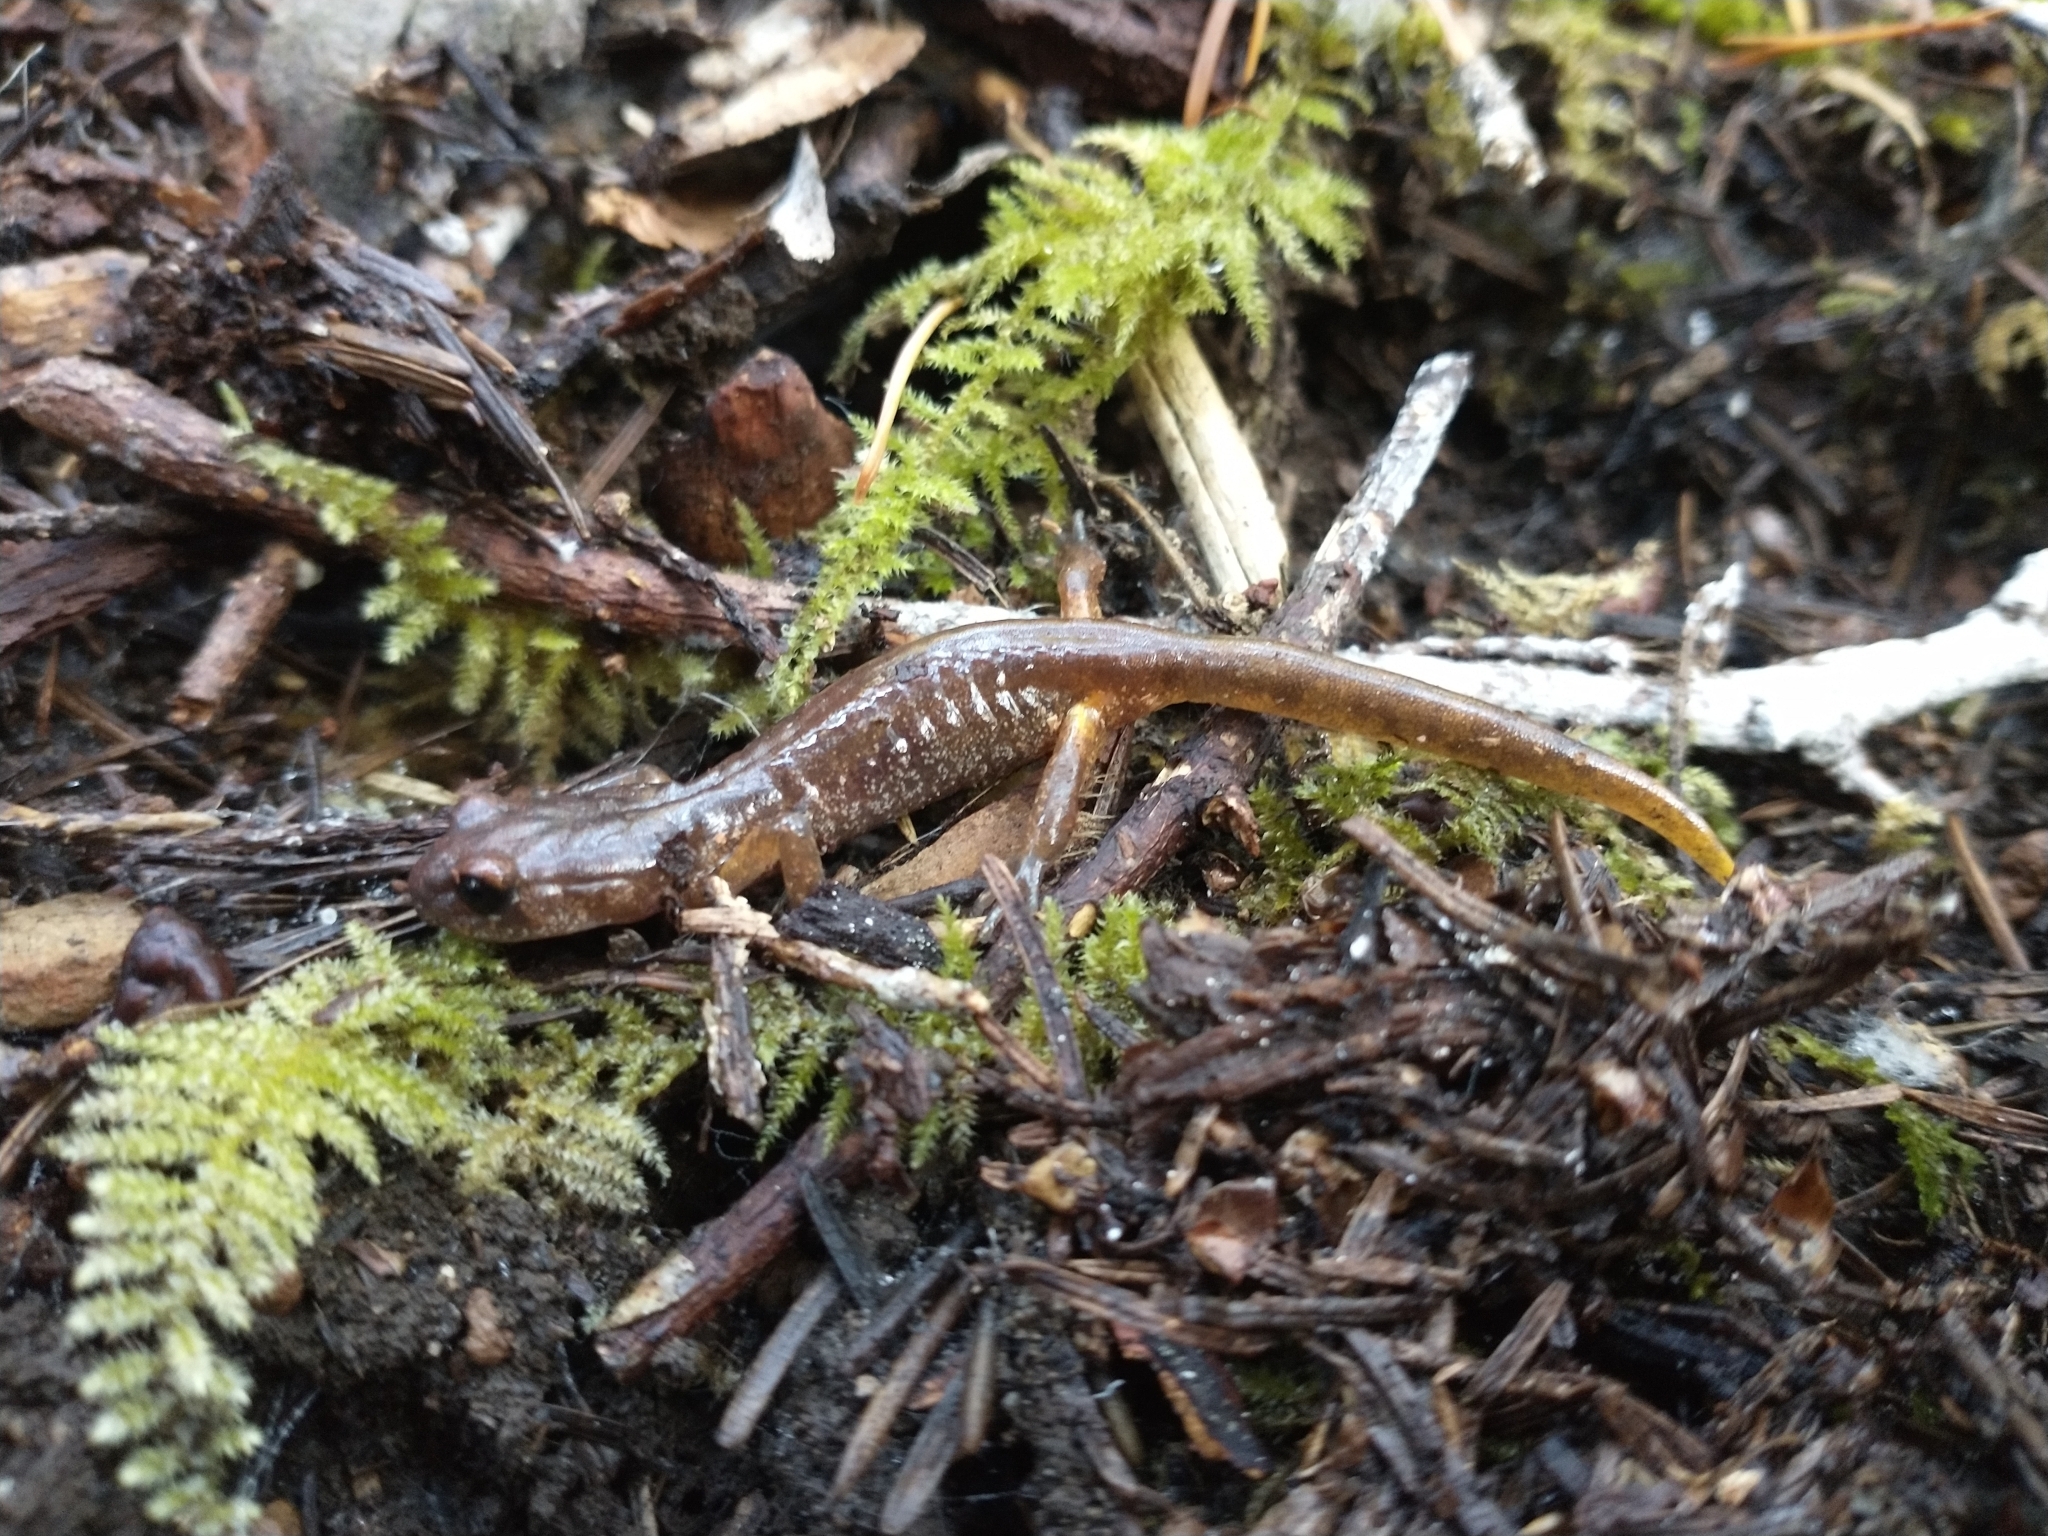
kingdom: Animalia
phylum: Chordata
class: Amphibia
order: Caudata
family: Plethodontidae
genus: Ensatina
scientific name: Ensatina eschscholtzii
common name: Ensatina
